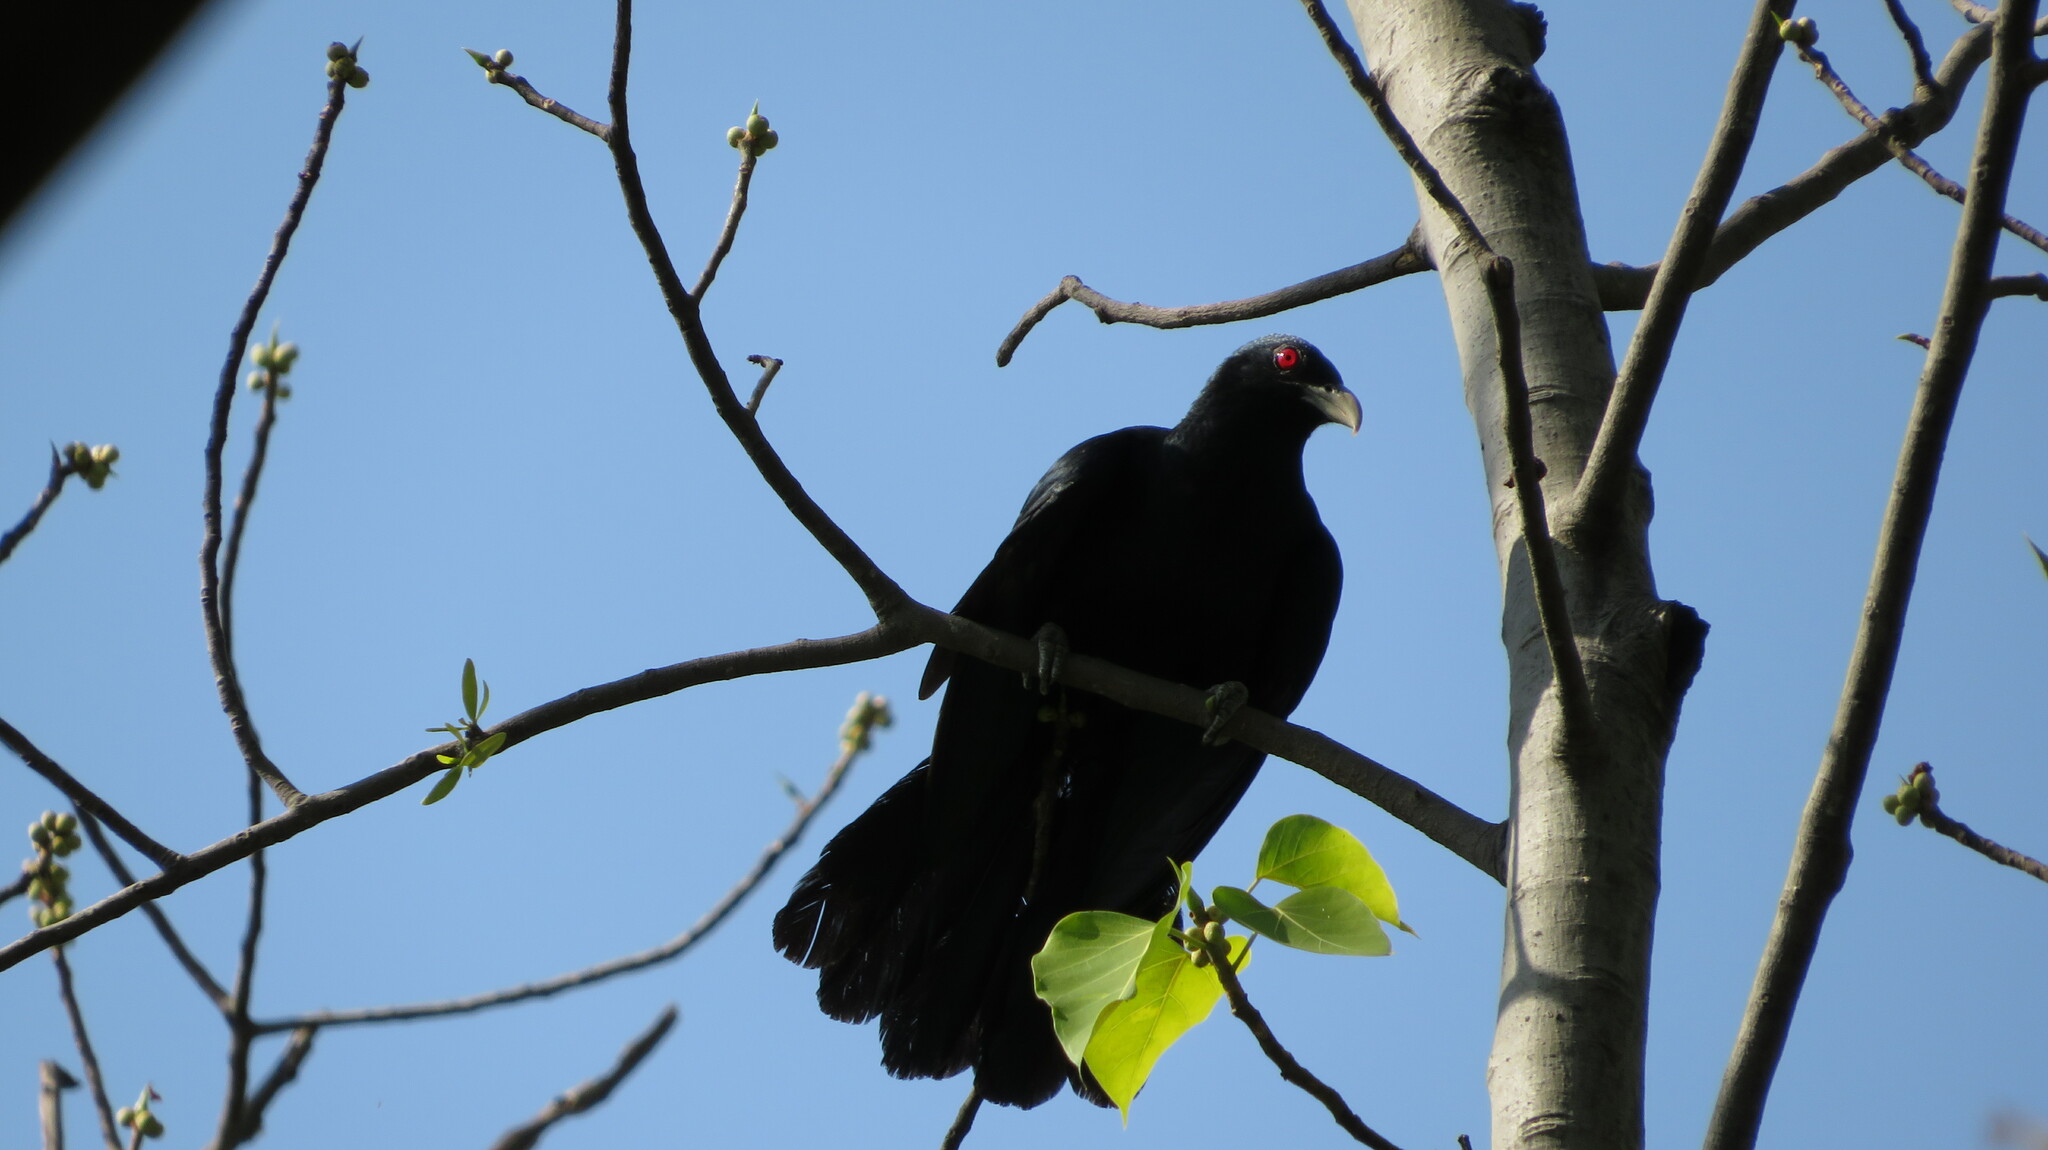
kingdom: Animalia
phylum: Chordata
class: Aves
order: Cuculiformes
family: Cuculidae
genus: Eudynamys
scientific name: Eudynamys scolopaceus
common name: Asian koel
